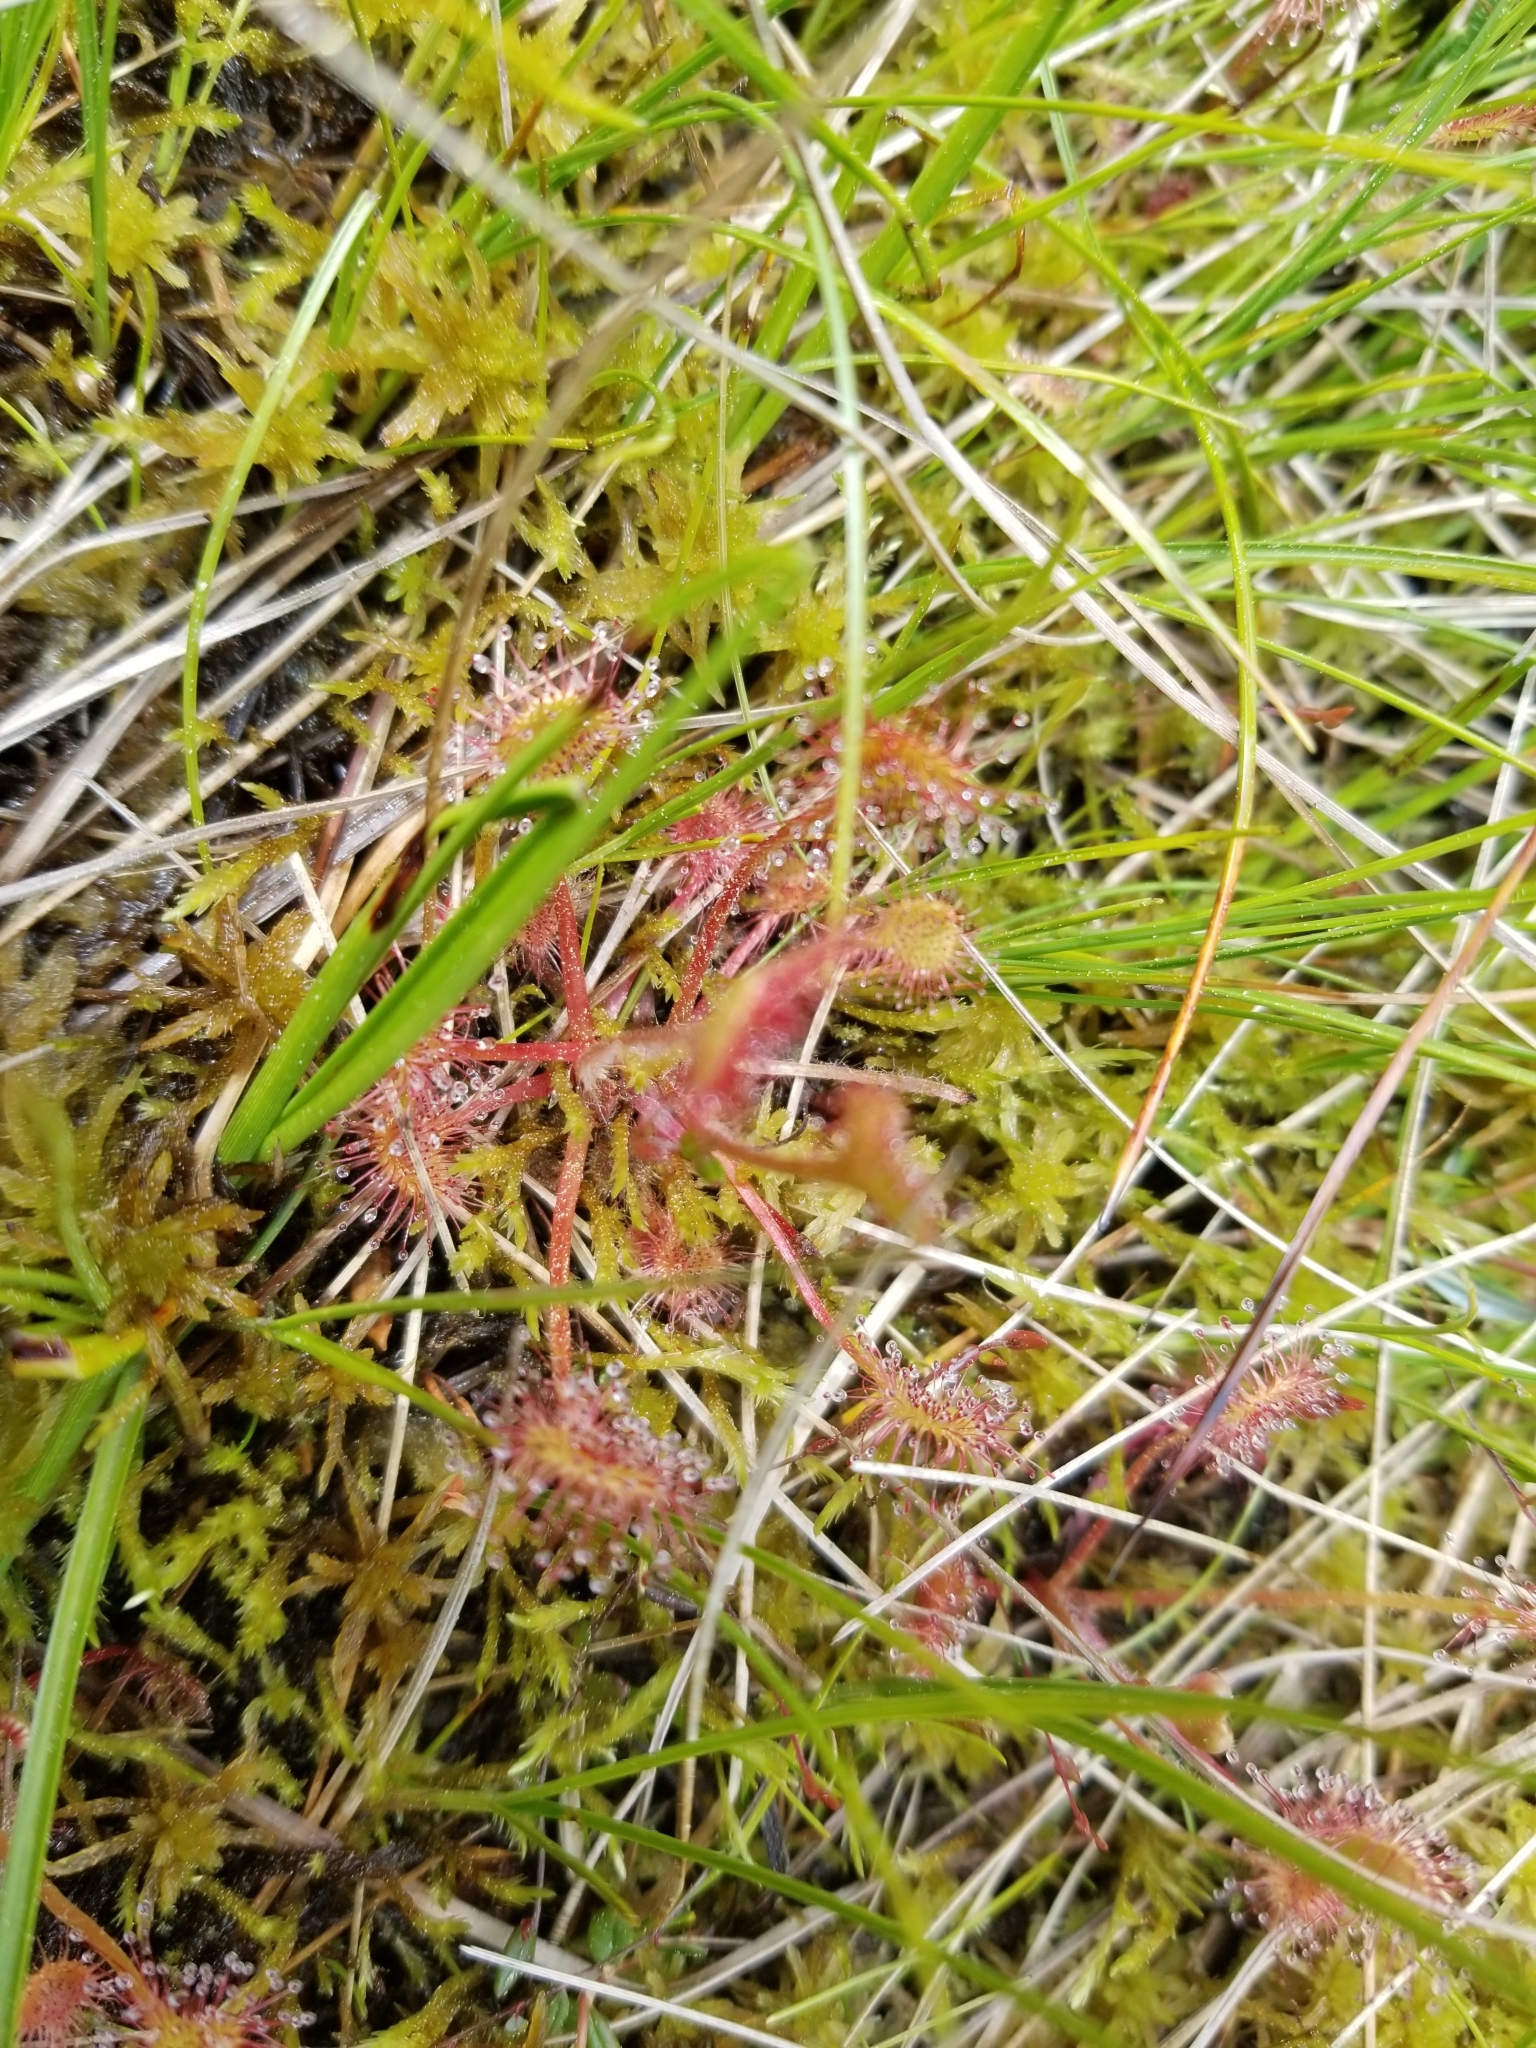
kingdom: Plantae
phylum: Tracheophyta
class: Magnoliopsida
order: Caryophyllales
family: Droseraceae
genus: Drosera
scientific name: Drosera rotundifolia
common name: Round-leaved sundew
